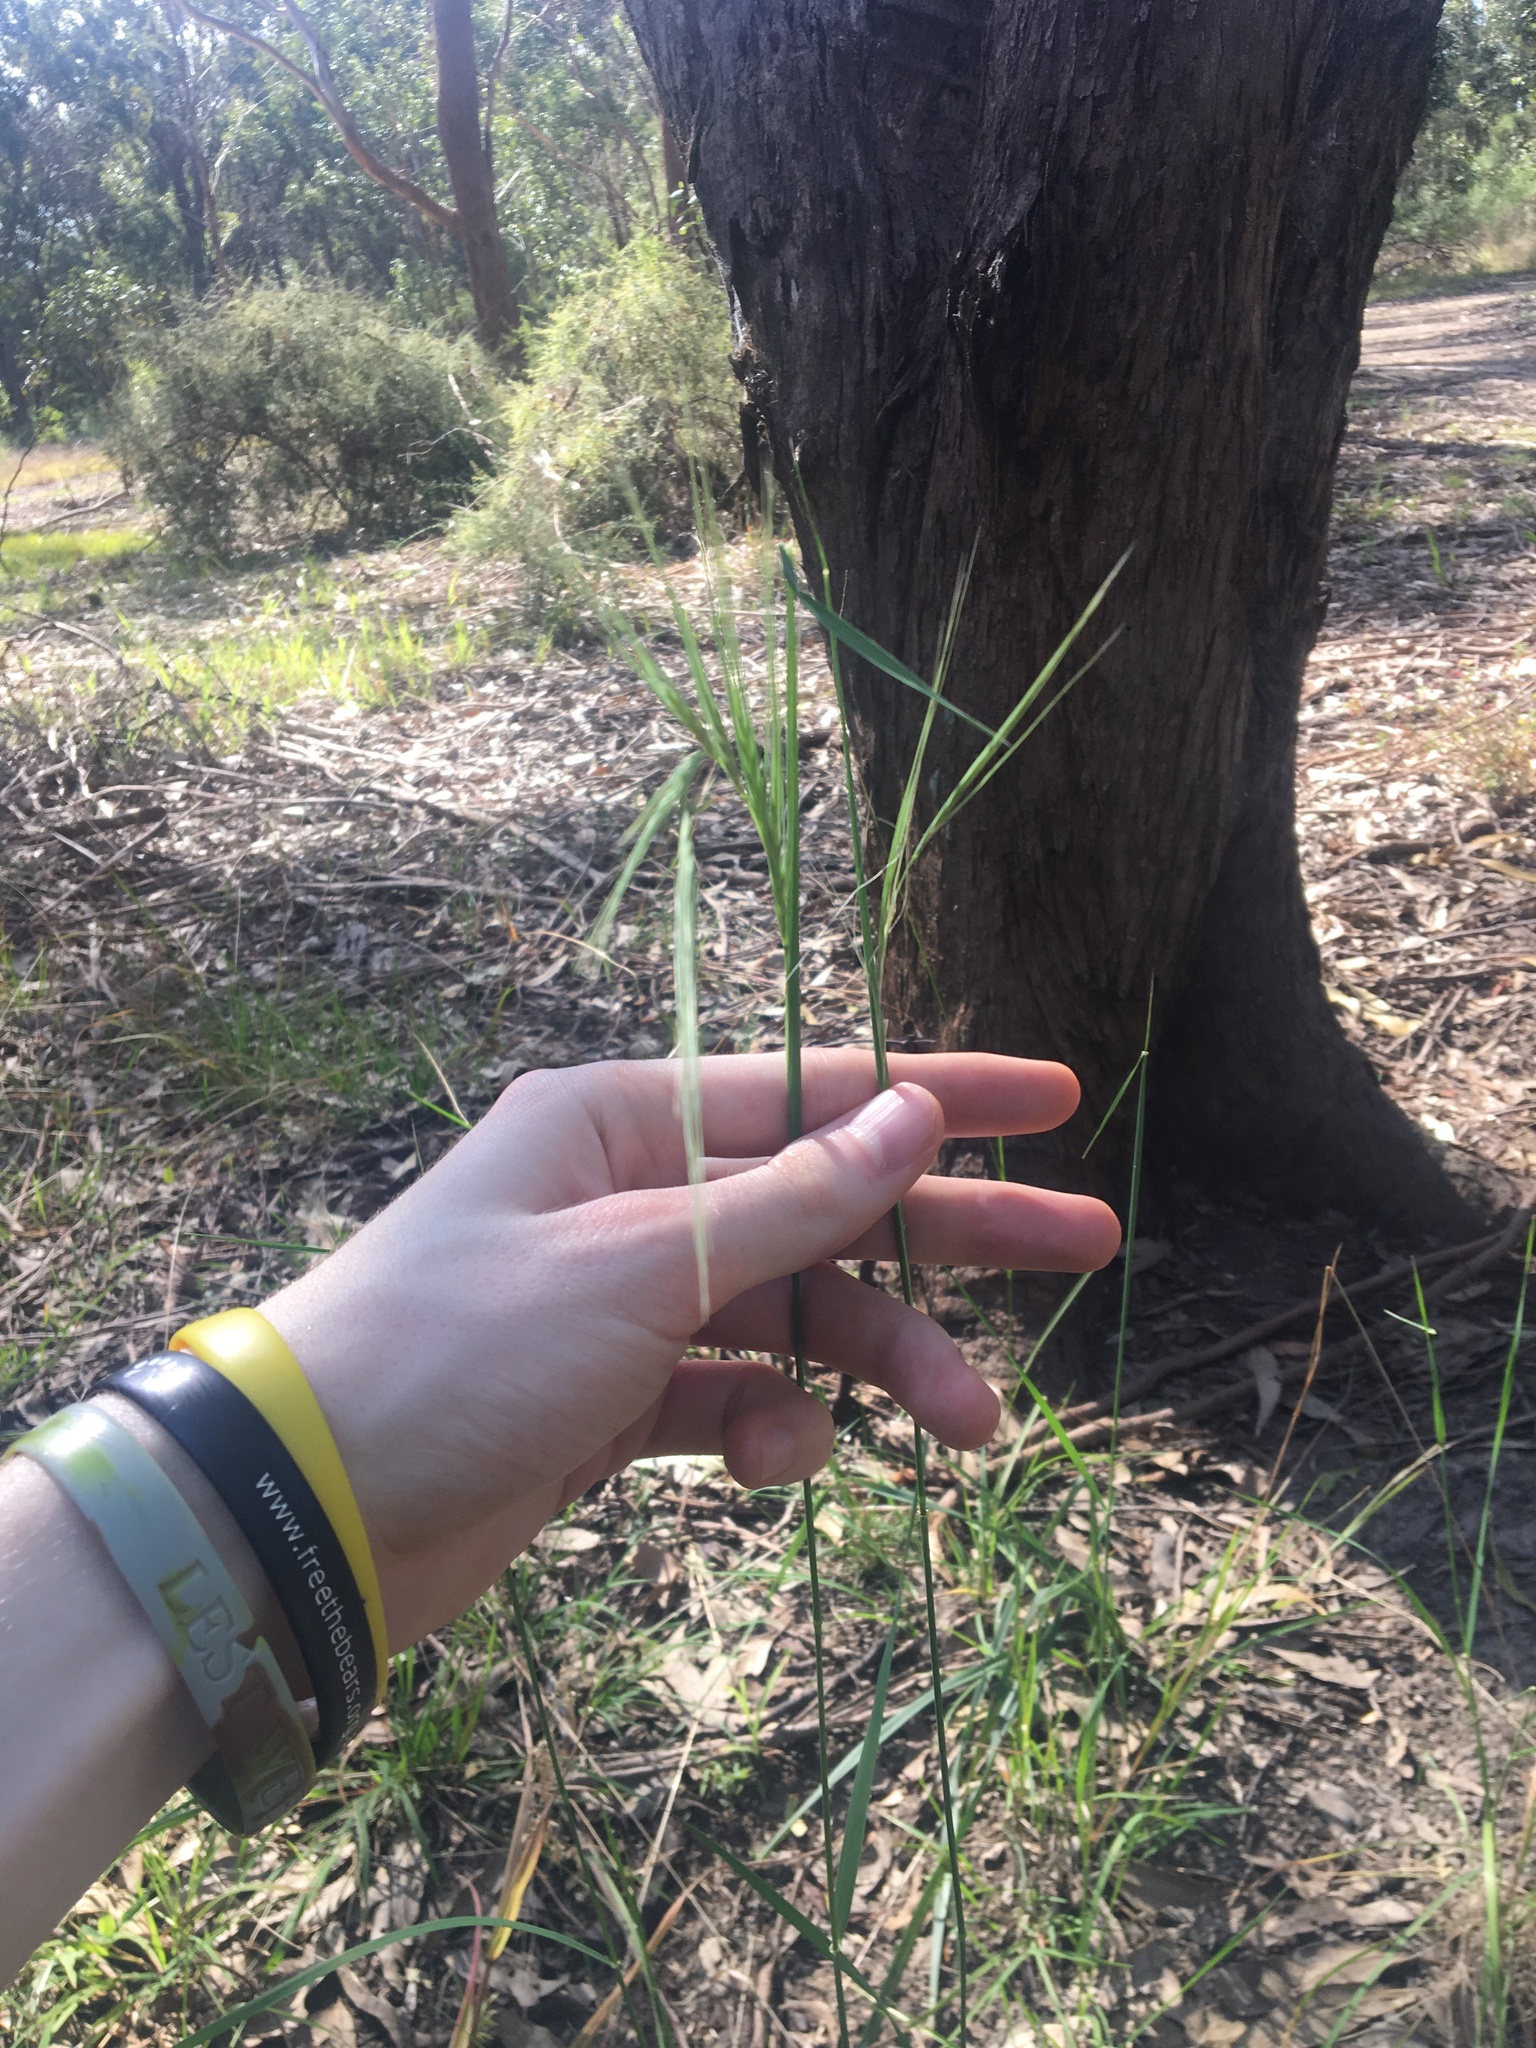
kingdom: Plantae
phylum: Tracheophyta
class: Liliopsida
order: Poales
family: Poaceae
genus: Anthosachne
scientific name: Anthosachne scabra
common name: Common wheatgrass
